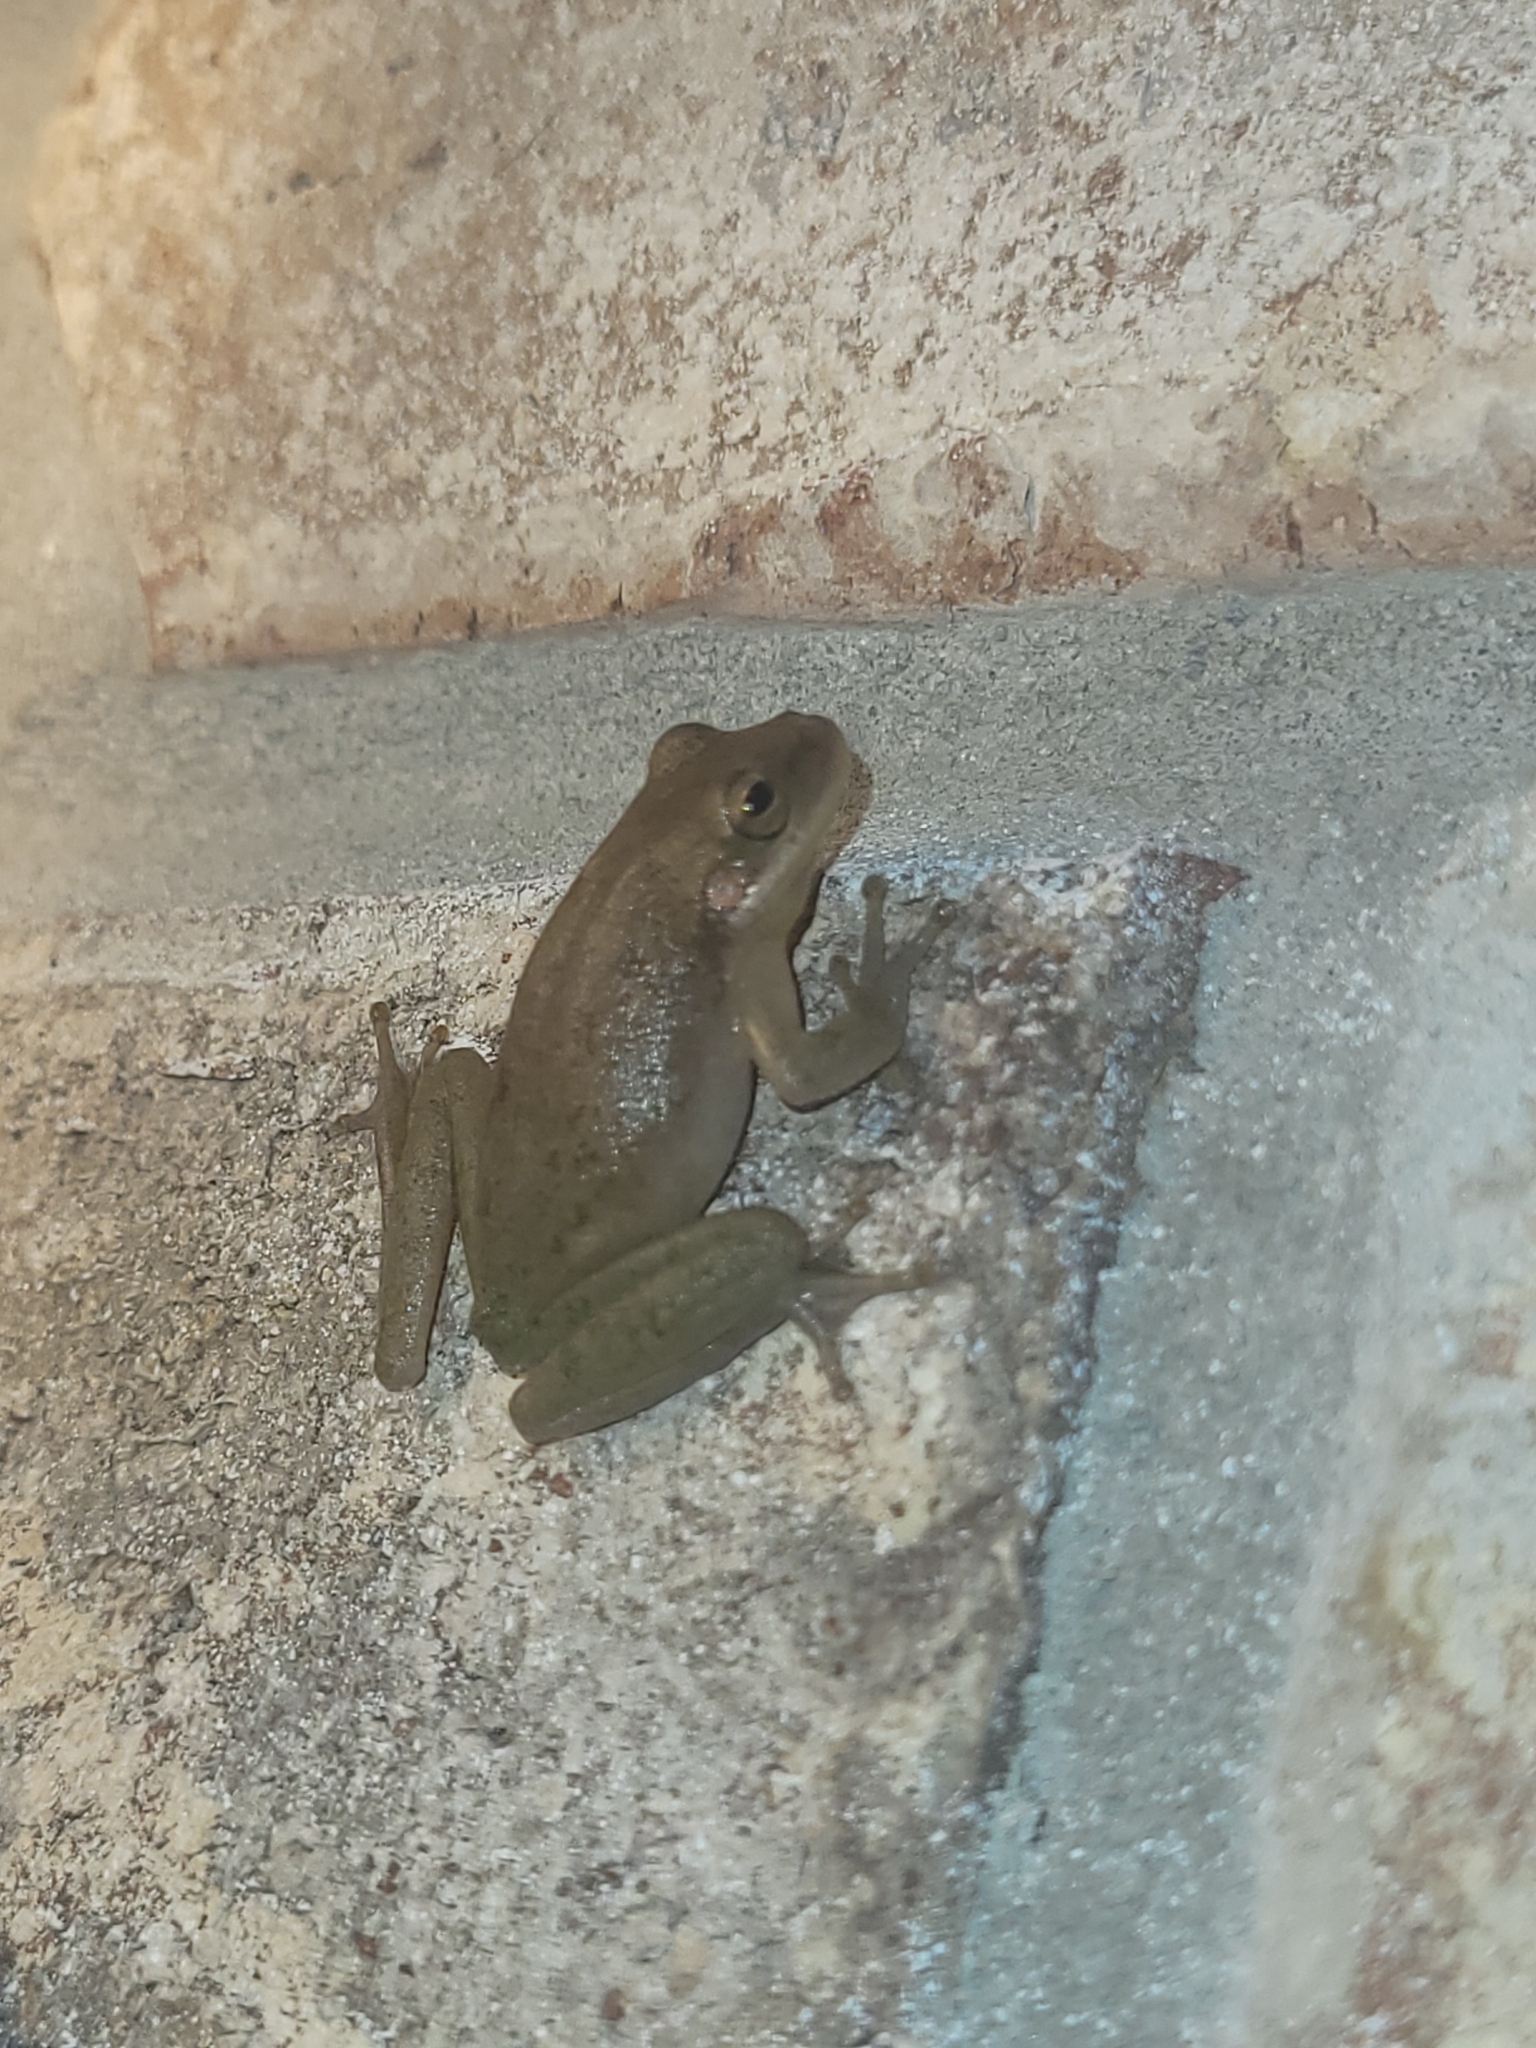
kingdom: Animalia
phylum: Chordata
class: Amphibia
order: Anura
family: Hylidae
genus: Dryophytes
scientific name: Dryophytes squirellus
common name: Squirrel treefrog
